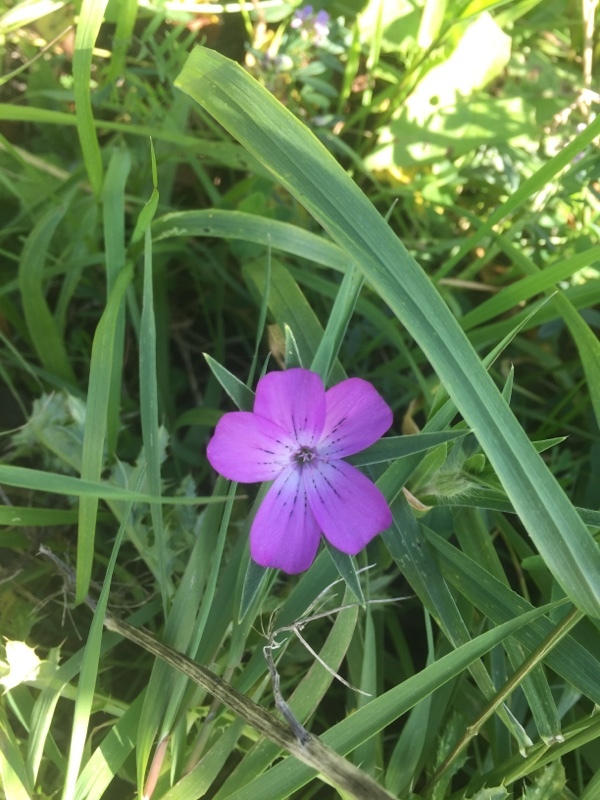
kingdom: Plantae
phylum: Tracheophyta
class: Magnoliopsida
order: Caryophyllales
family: Caryophyllaceae
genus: Agrostemma
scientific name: Agrostemma githago
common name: Common corncockle
